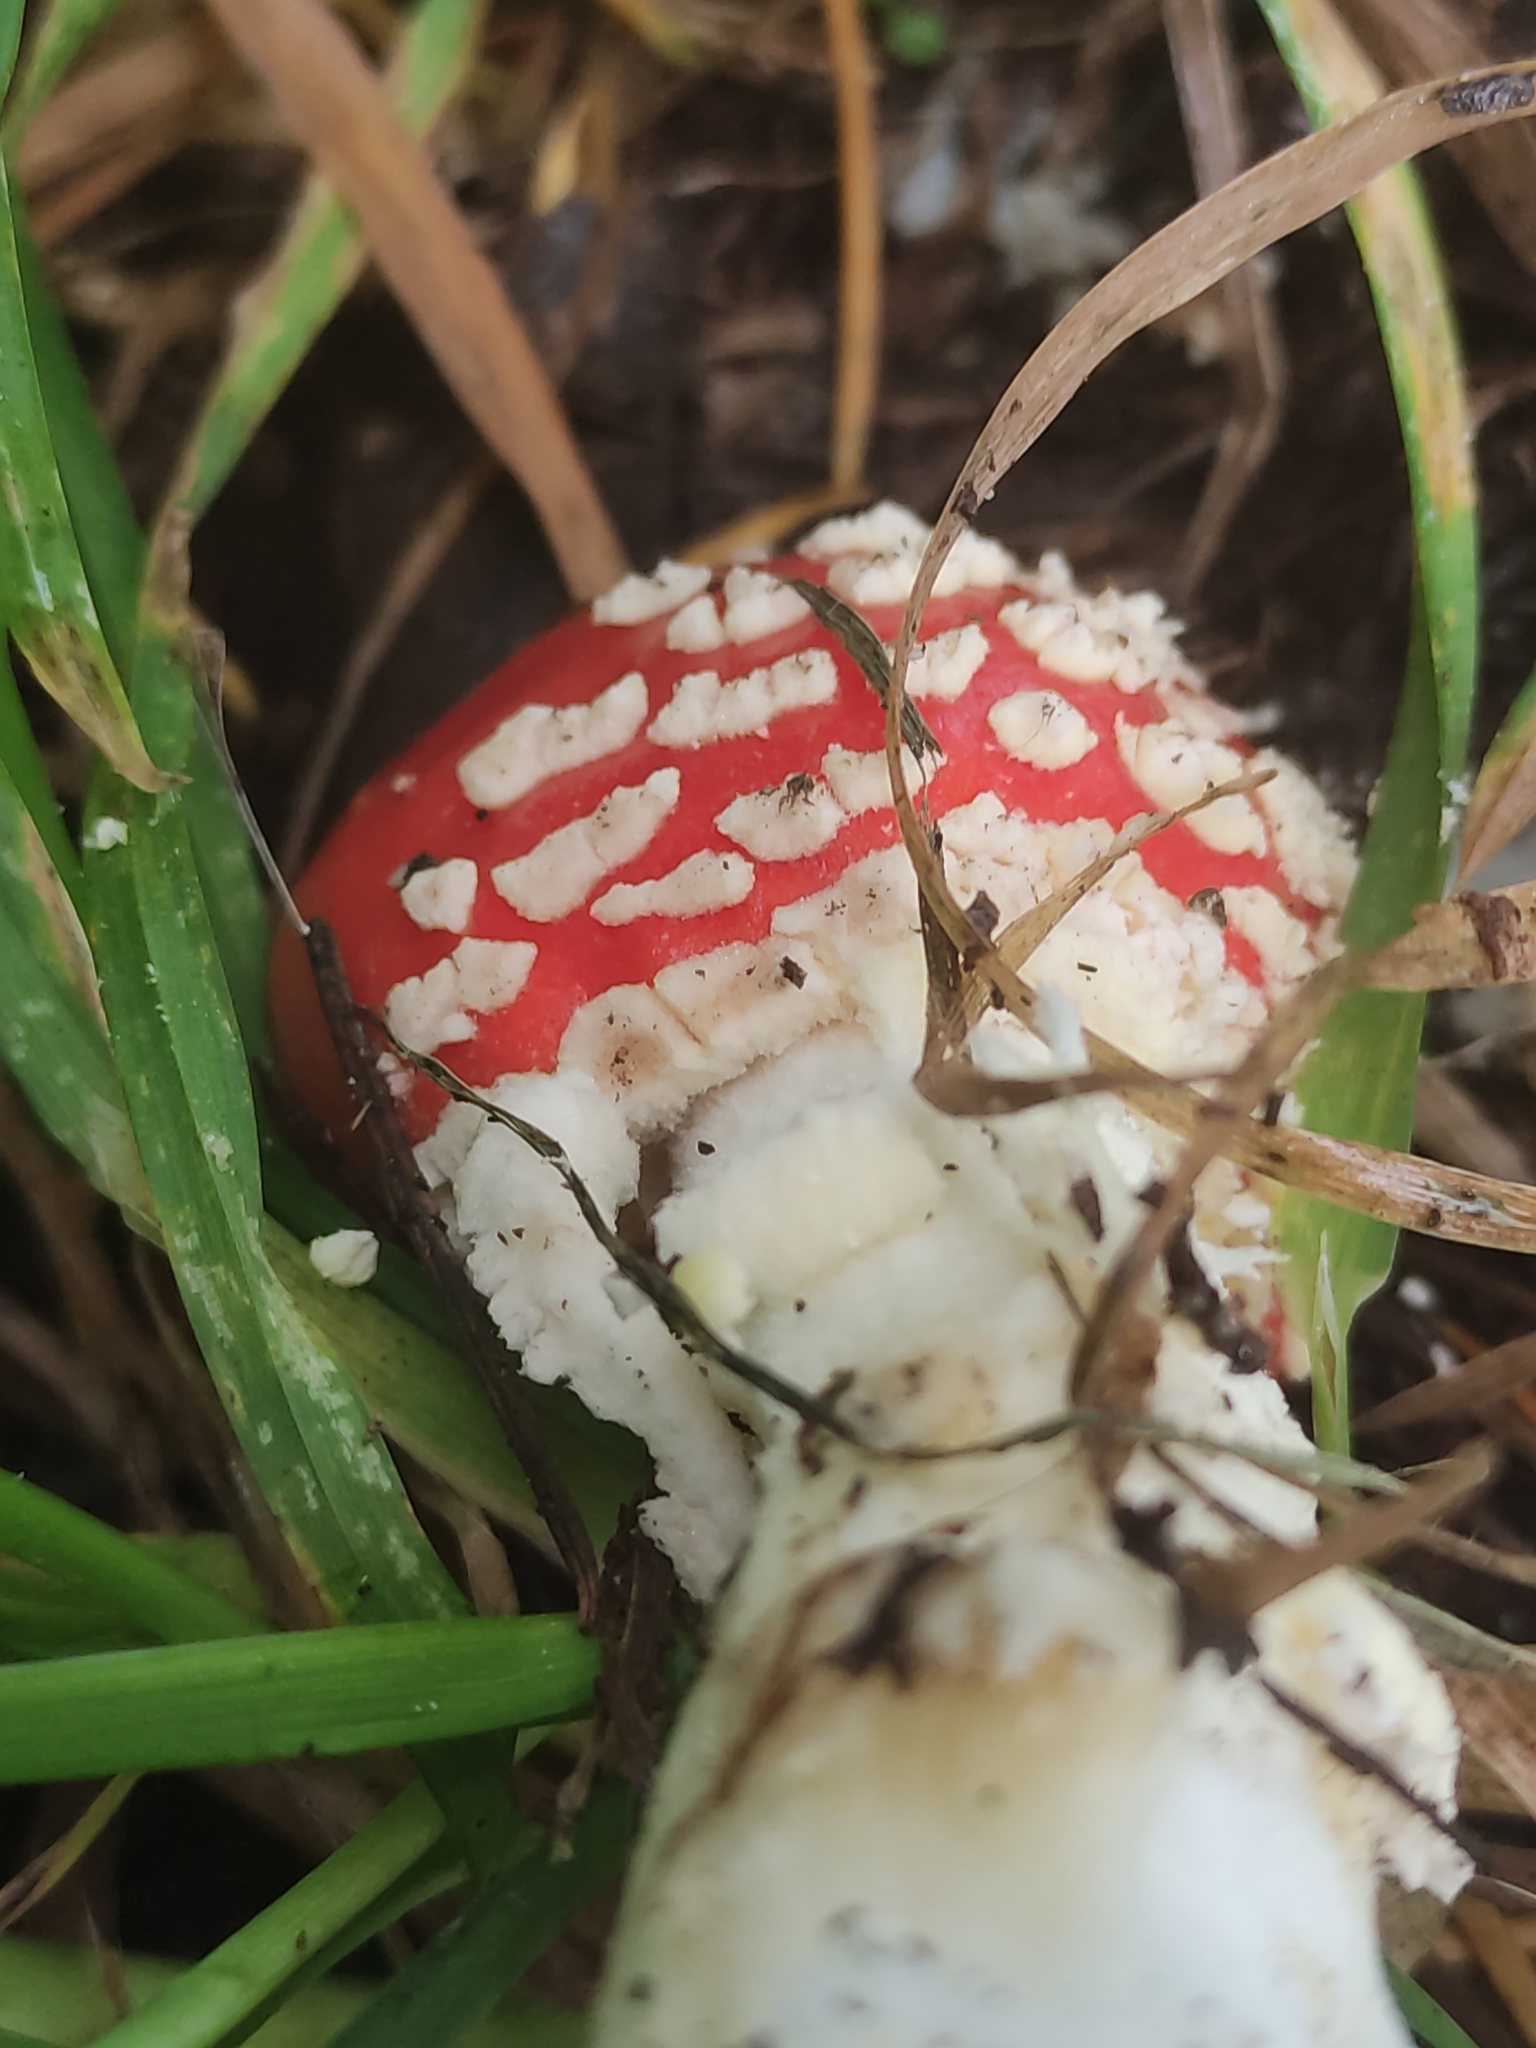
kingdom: Fungi
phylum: Basidiomycota
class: Agaricomycetes
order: Agaricales
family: Amanitaceae
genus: Amanita
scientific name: Amanita muscaria
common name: Fly agaric
